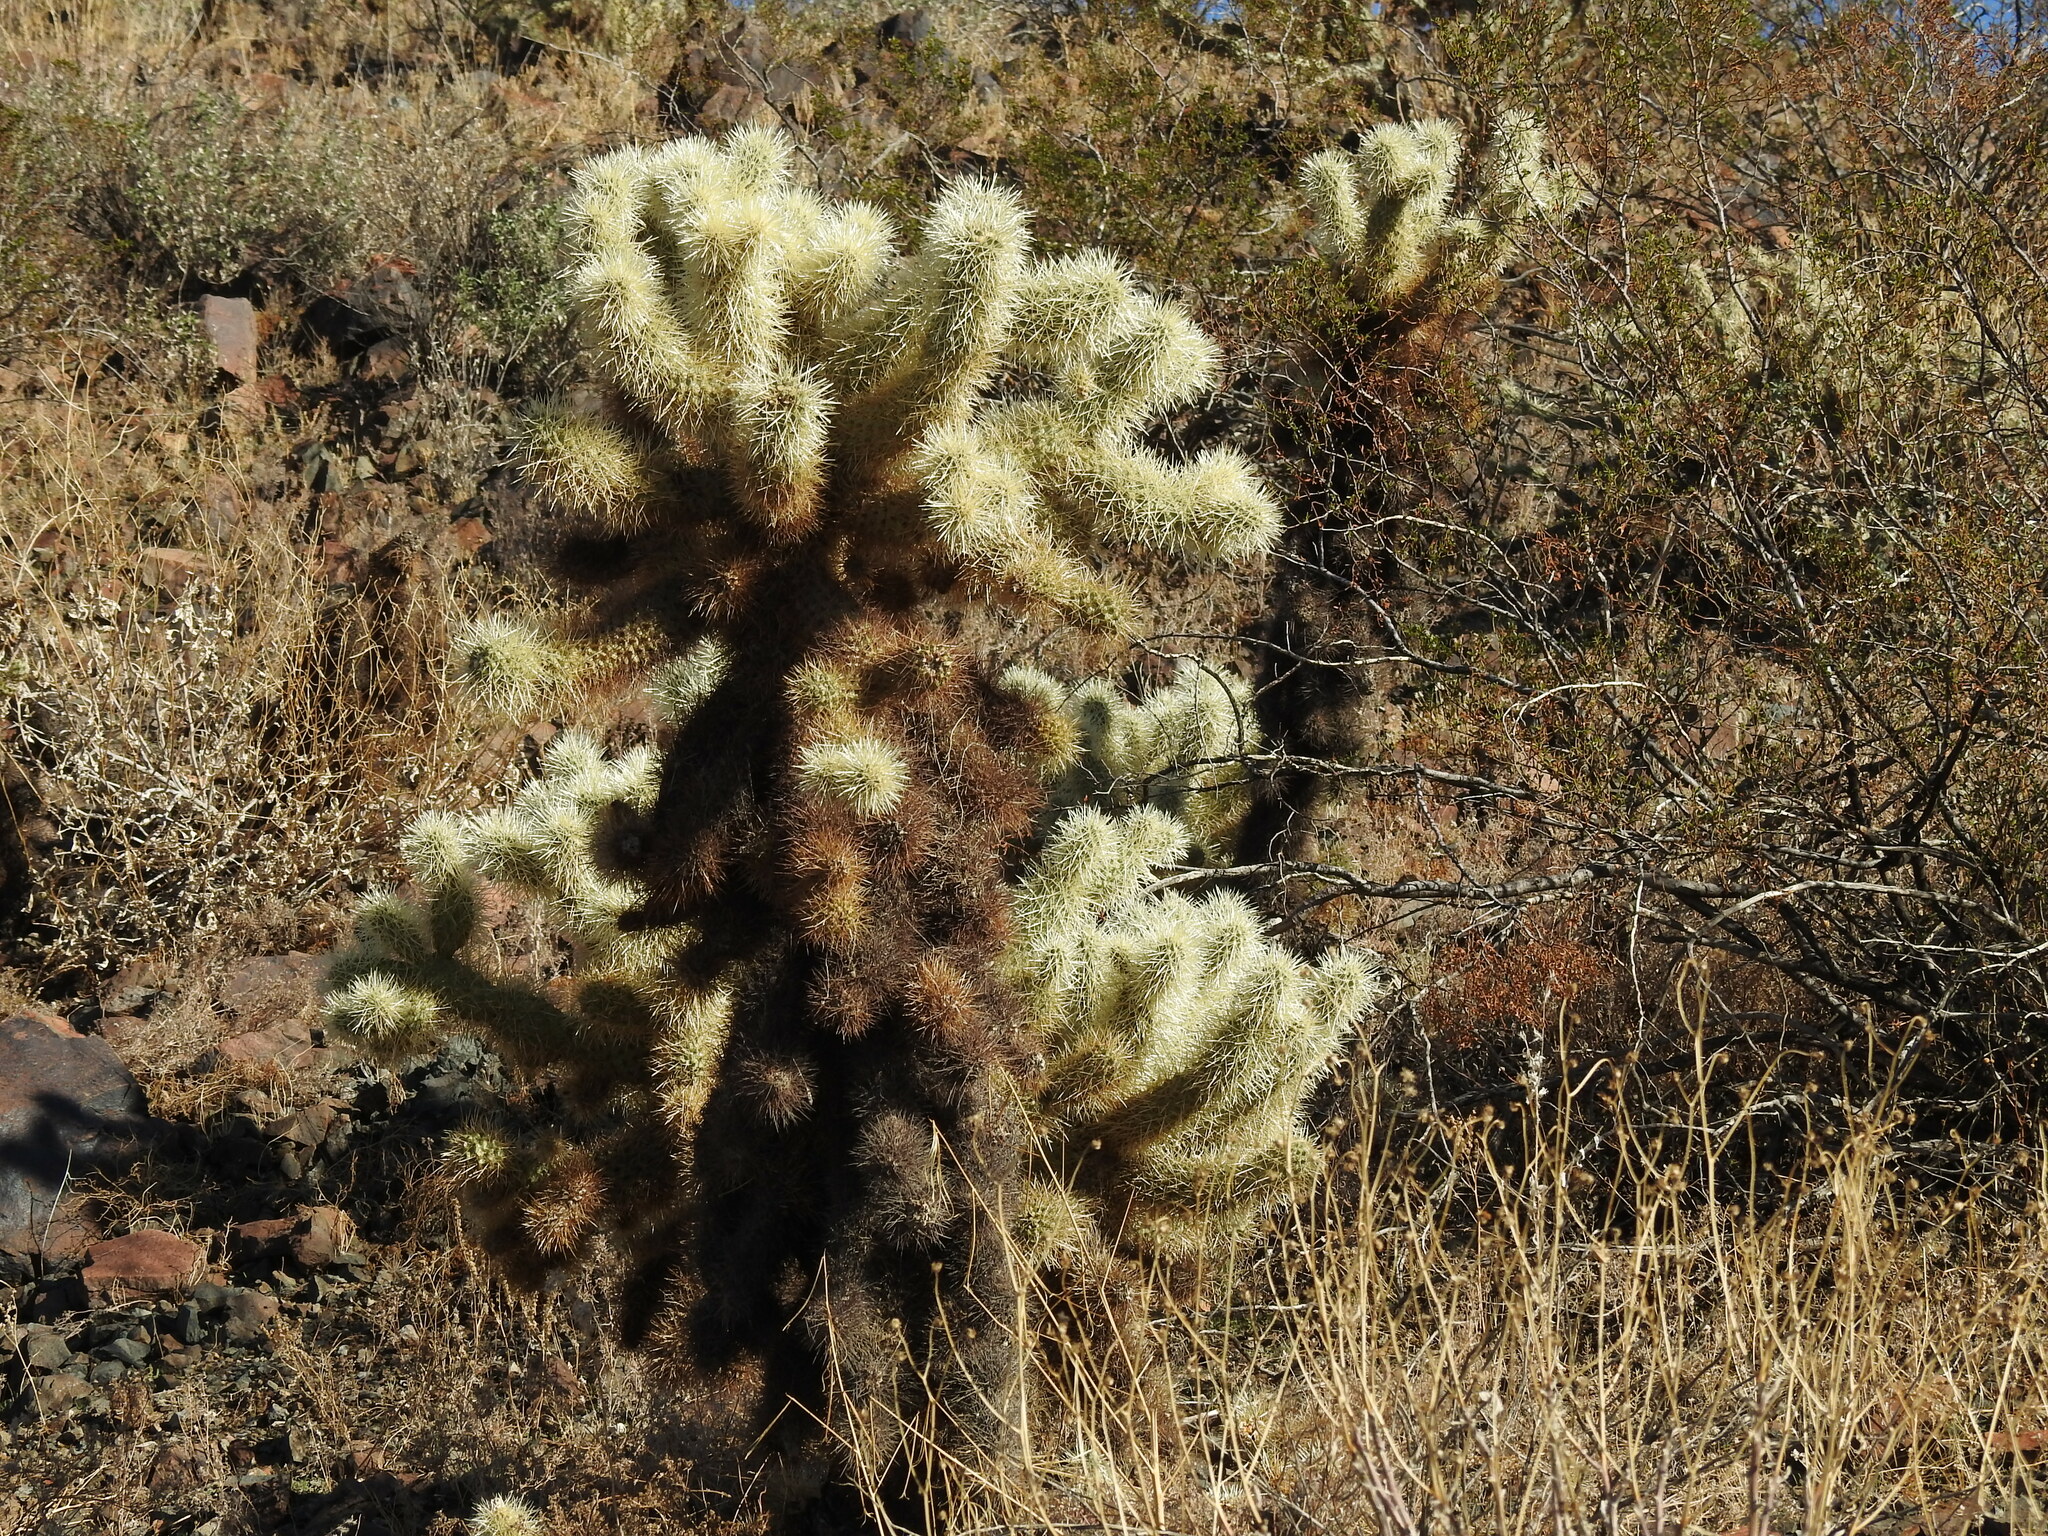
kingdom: Plantae
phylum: Tracheophyta
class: Magnoliopsida
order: Caryophyllales
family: Cactaceae
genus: Cylindropuntia
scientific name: Cylindropuntia fosbergii
